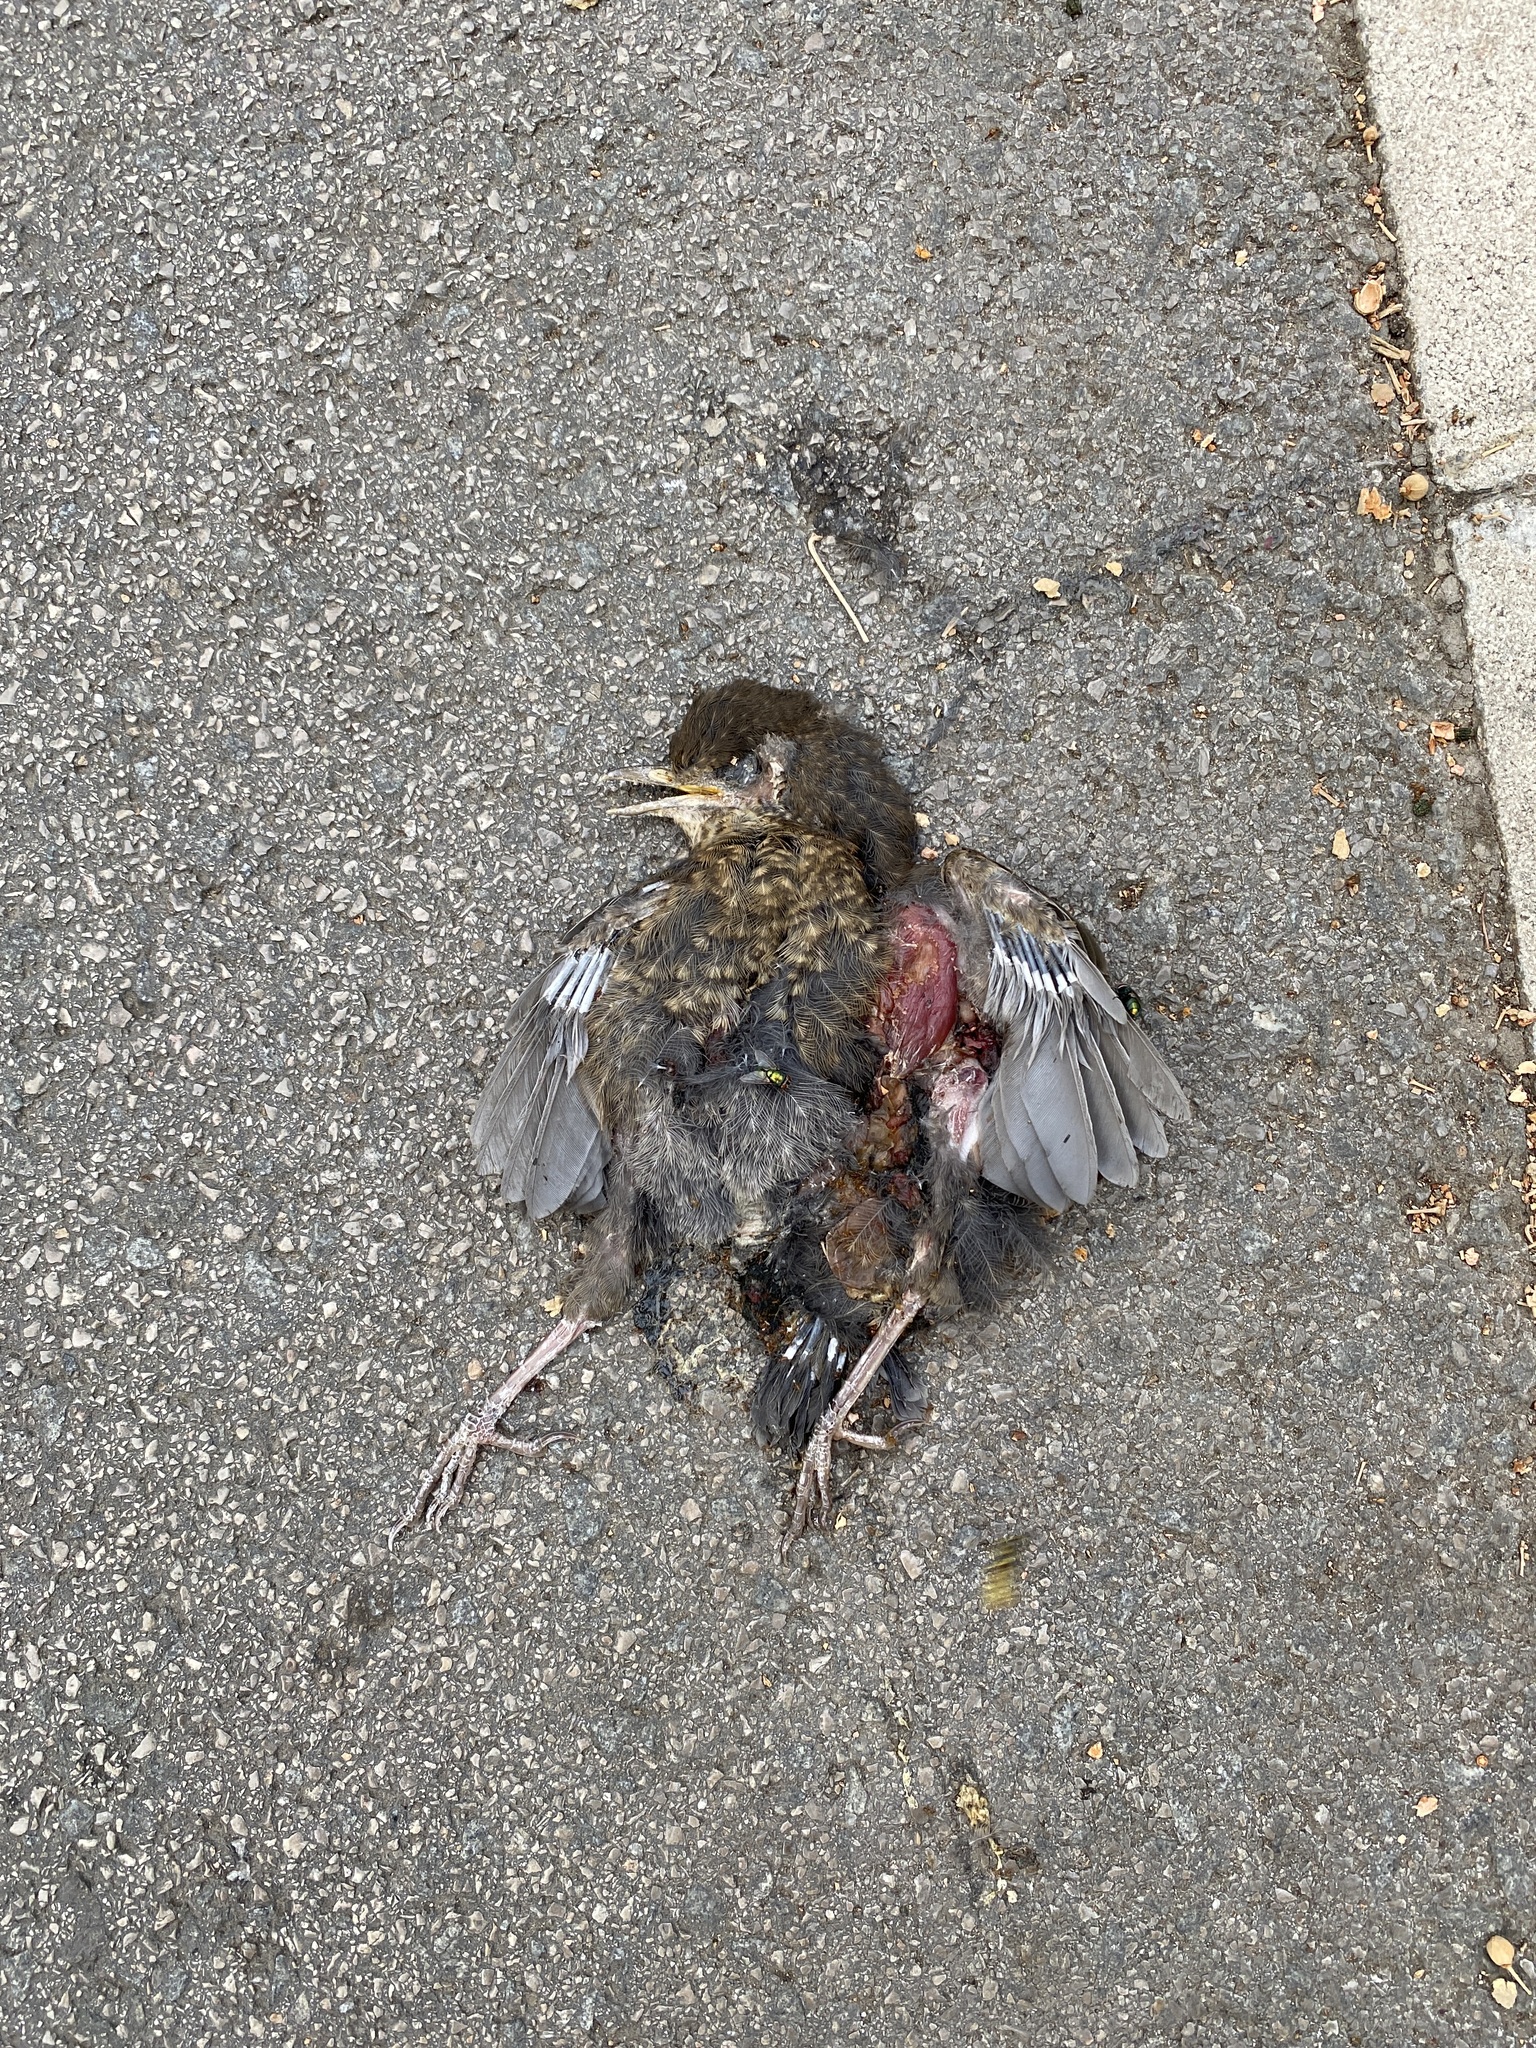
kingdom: Animalia
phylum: Chordata
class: Aves
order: Passeriformes
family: Turdidae
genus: Turdus
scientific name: Turdus merula
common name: Common blackbird
